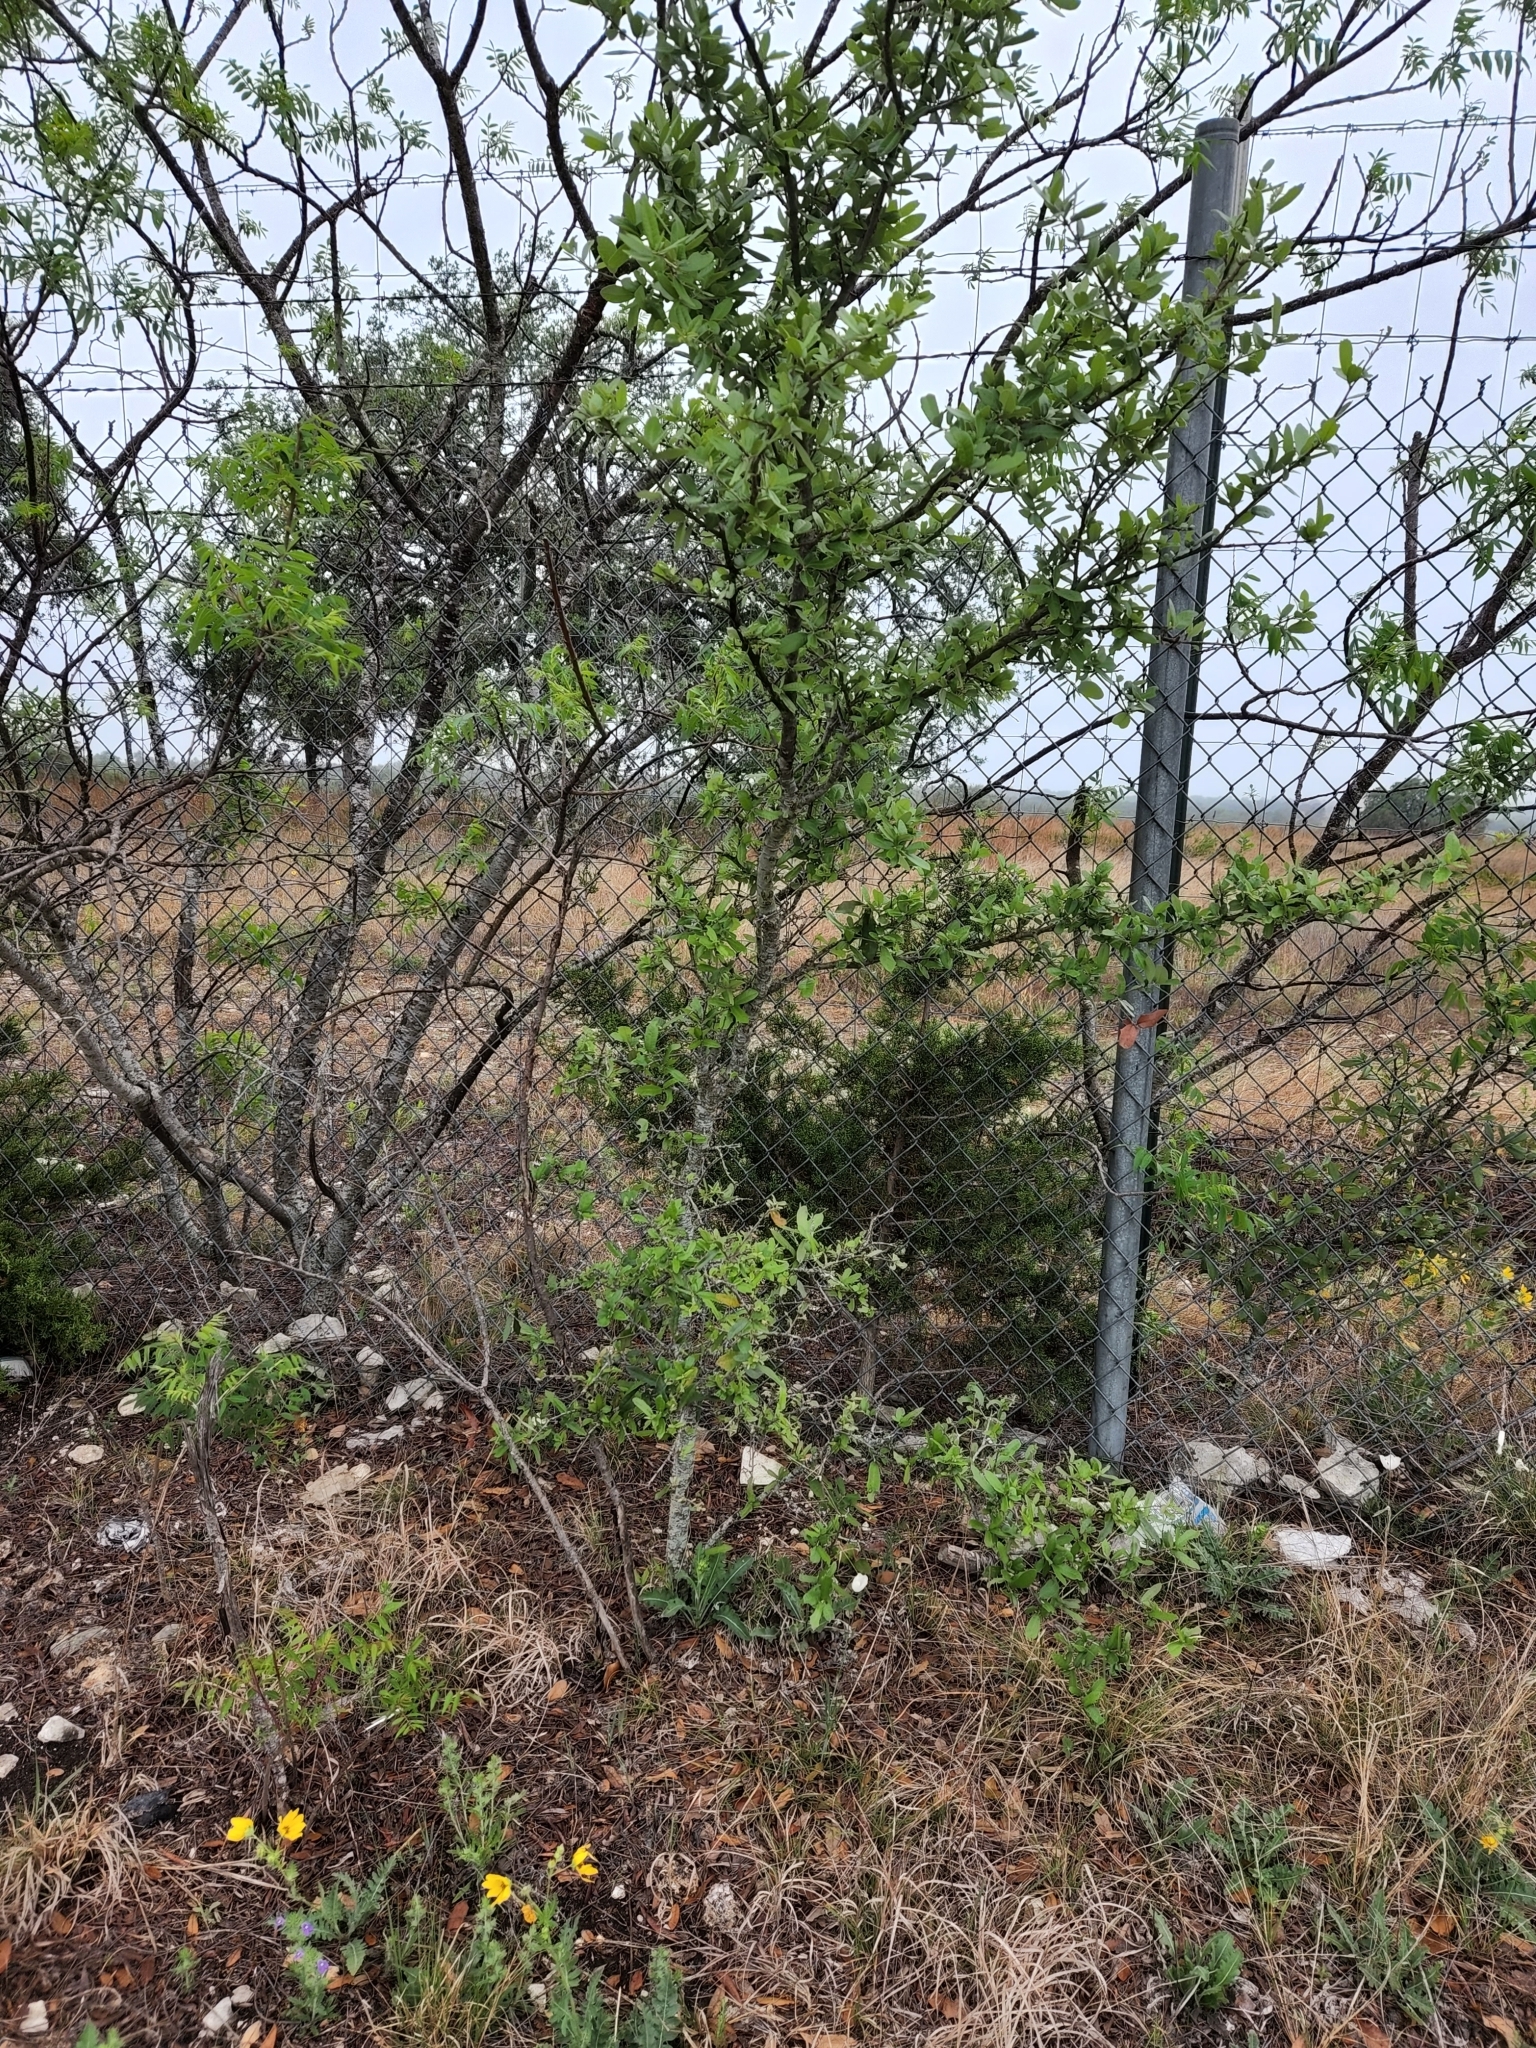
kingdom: Plantae
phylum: Tracheophyta
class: Magnoliopsida
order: Fagales
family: Fagaceae
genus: Quercus
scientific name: Quercus fusiformis
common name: Texas live oak
